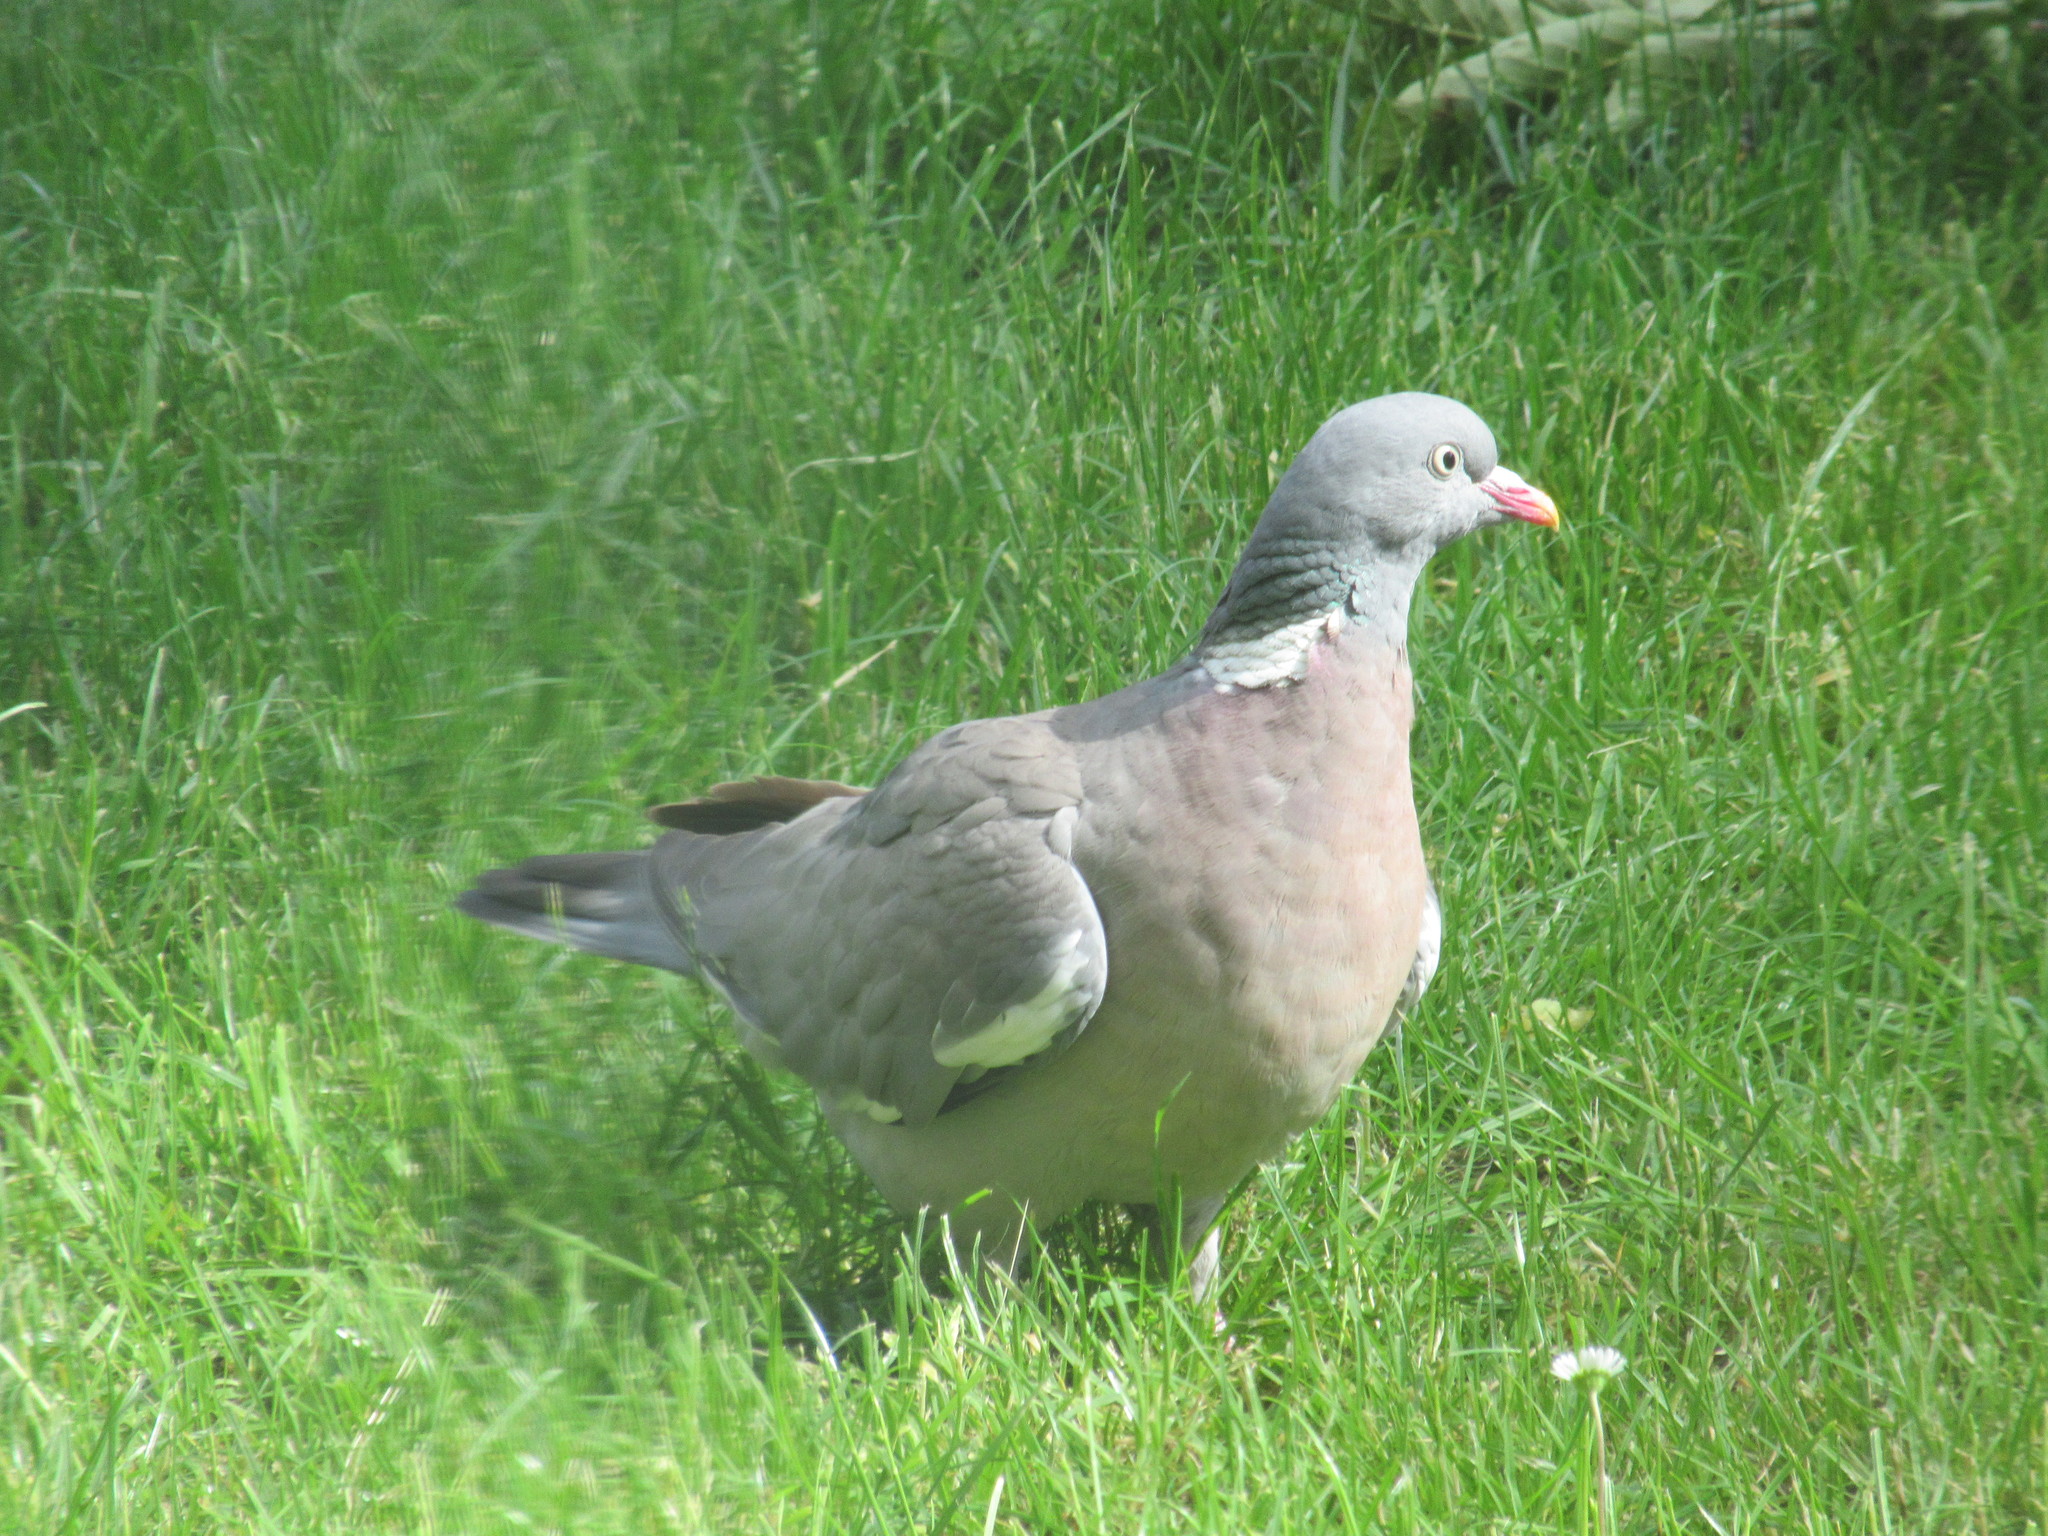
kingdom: Animalia
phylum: Chordata
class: Aves
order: Columbiformes
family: Columbidae
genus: Columba
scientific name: Columba palumbus
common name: Common wood pigeon
